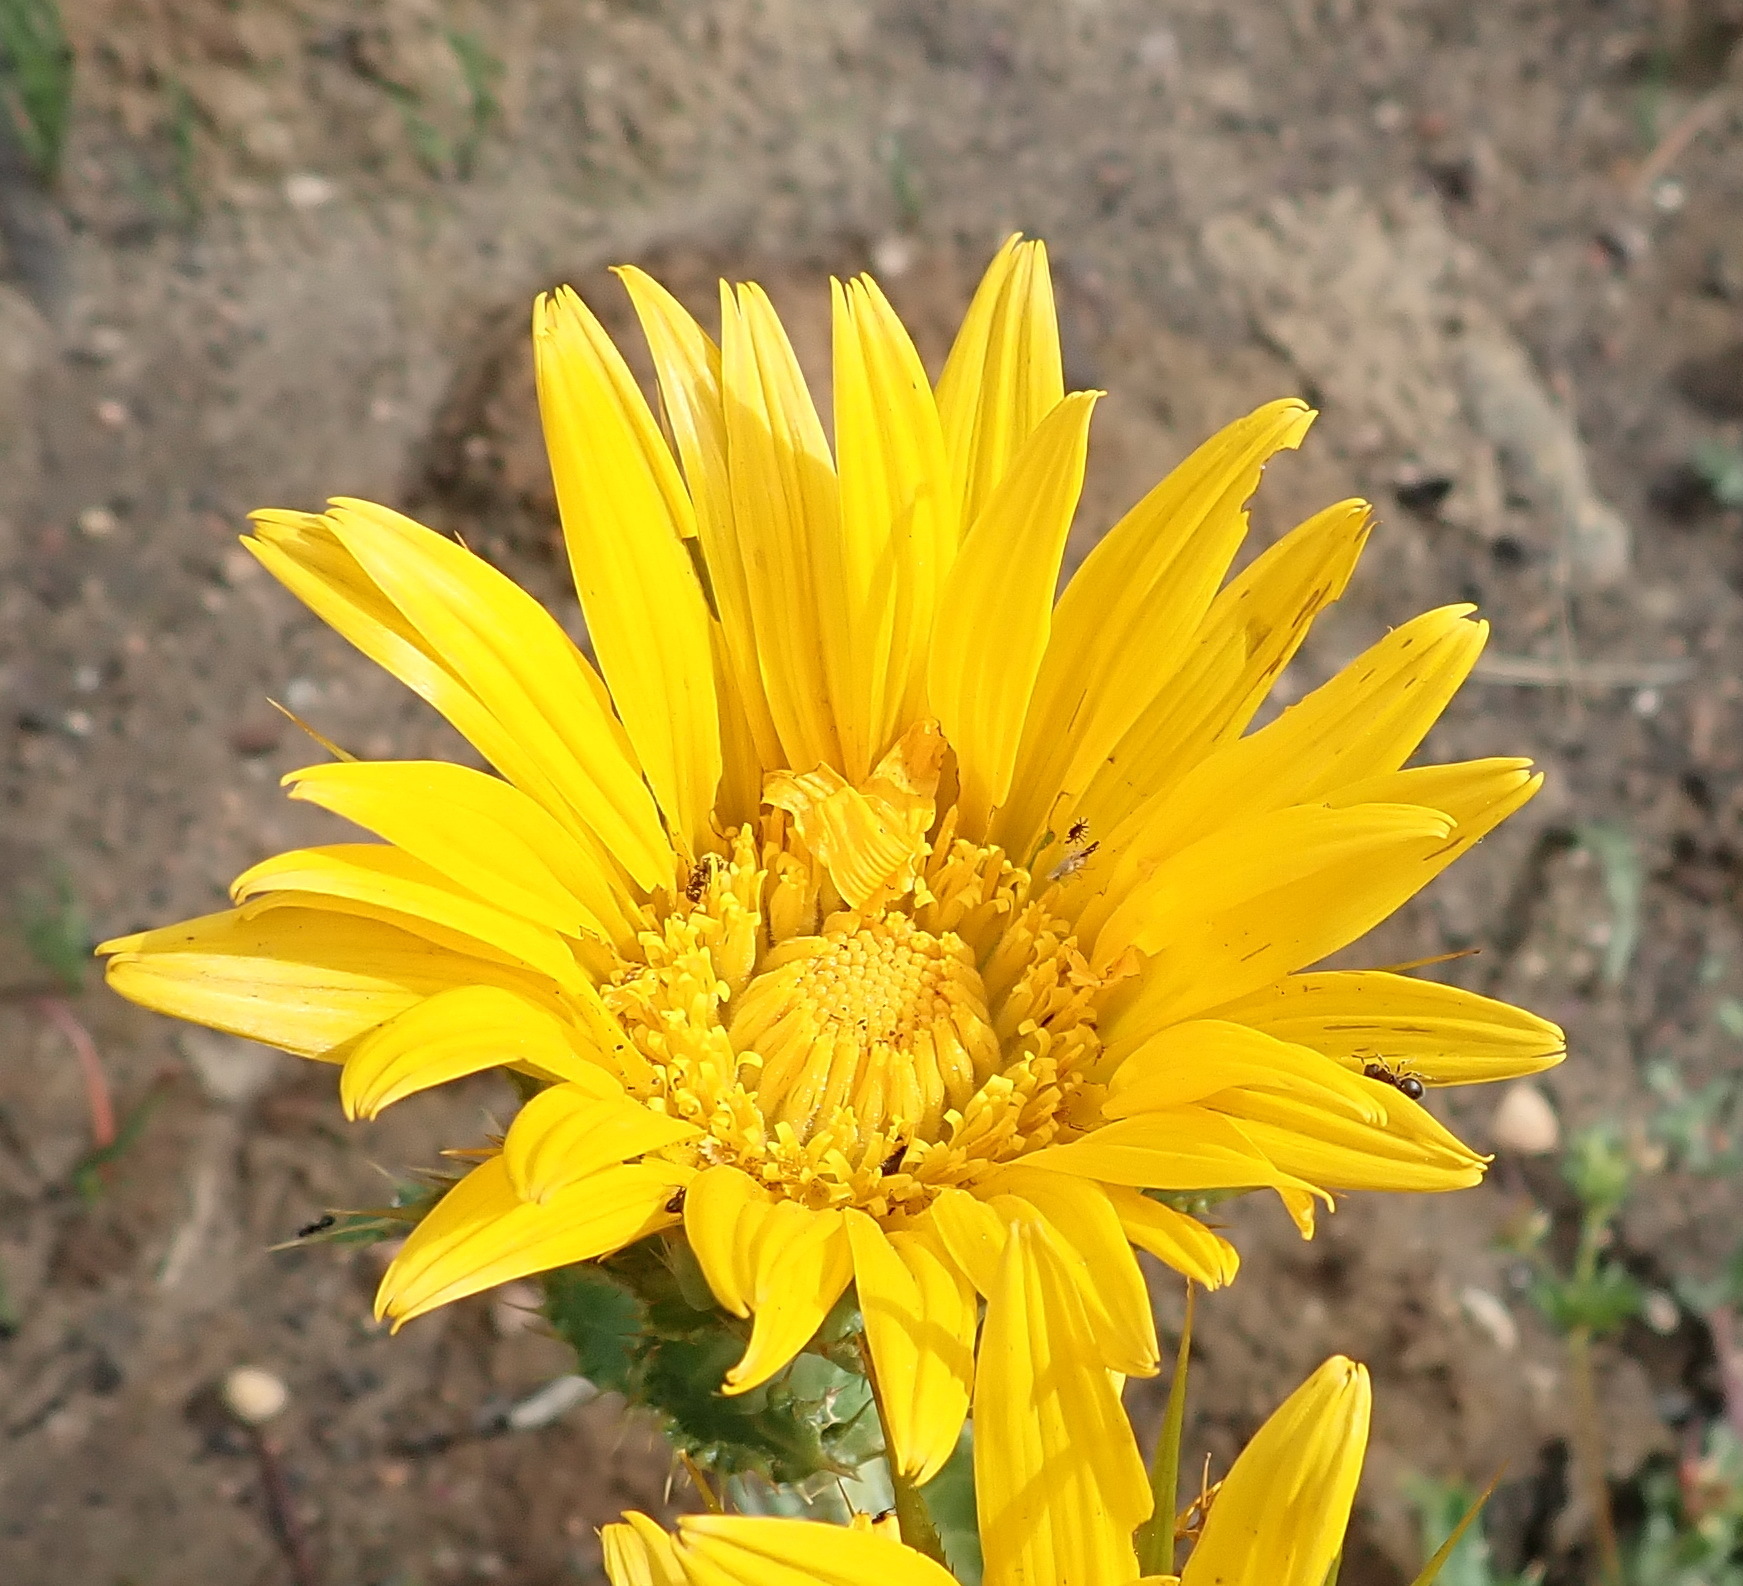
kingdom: Plantae
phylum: Tracheophyta
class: Magnoliopsida
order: Asterales
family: Asteraceae
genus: Berkheya
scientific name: Berkheya armata
